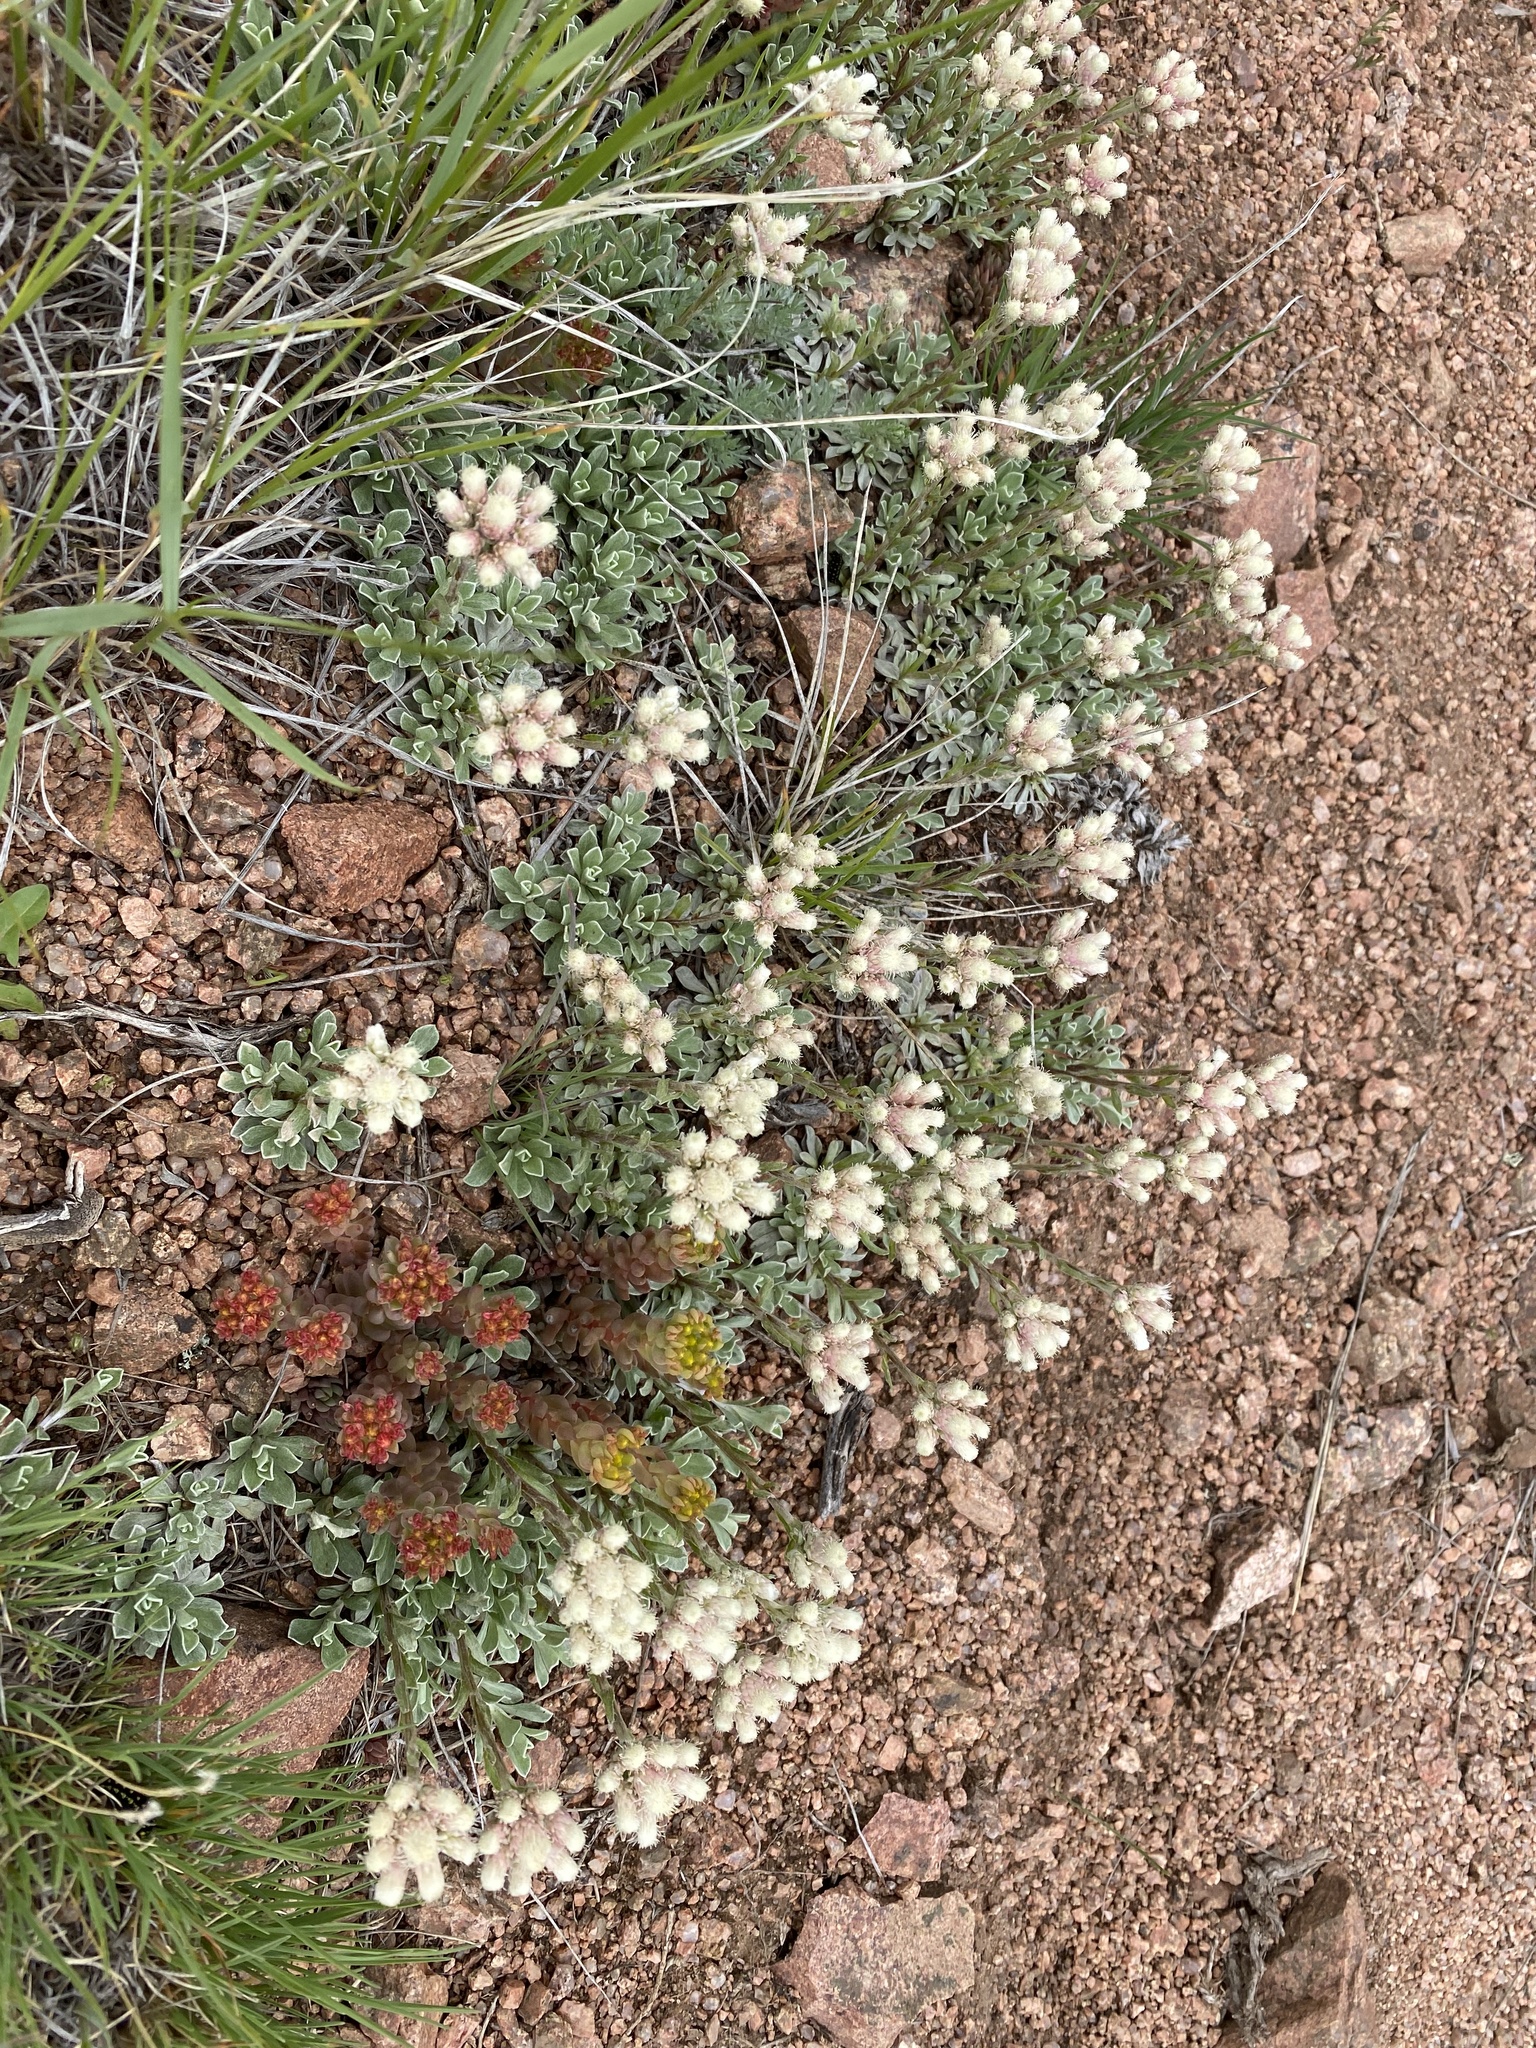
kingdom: Plantae
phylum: Tracheophyta
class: Magnoliopsida
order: Asterales
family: Asteraceae
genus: Antennaria
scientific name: Antennaria parvifolia
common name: Nuttall's pussytoes
